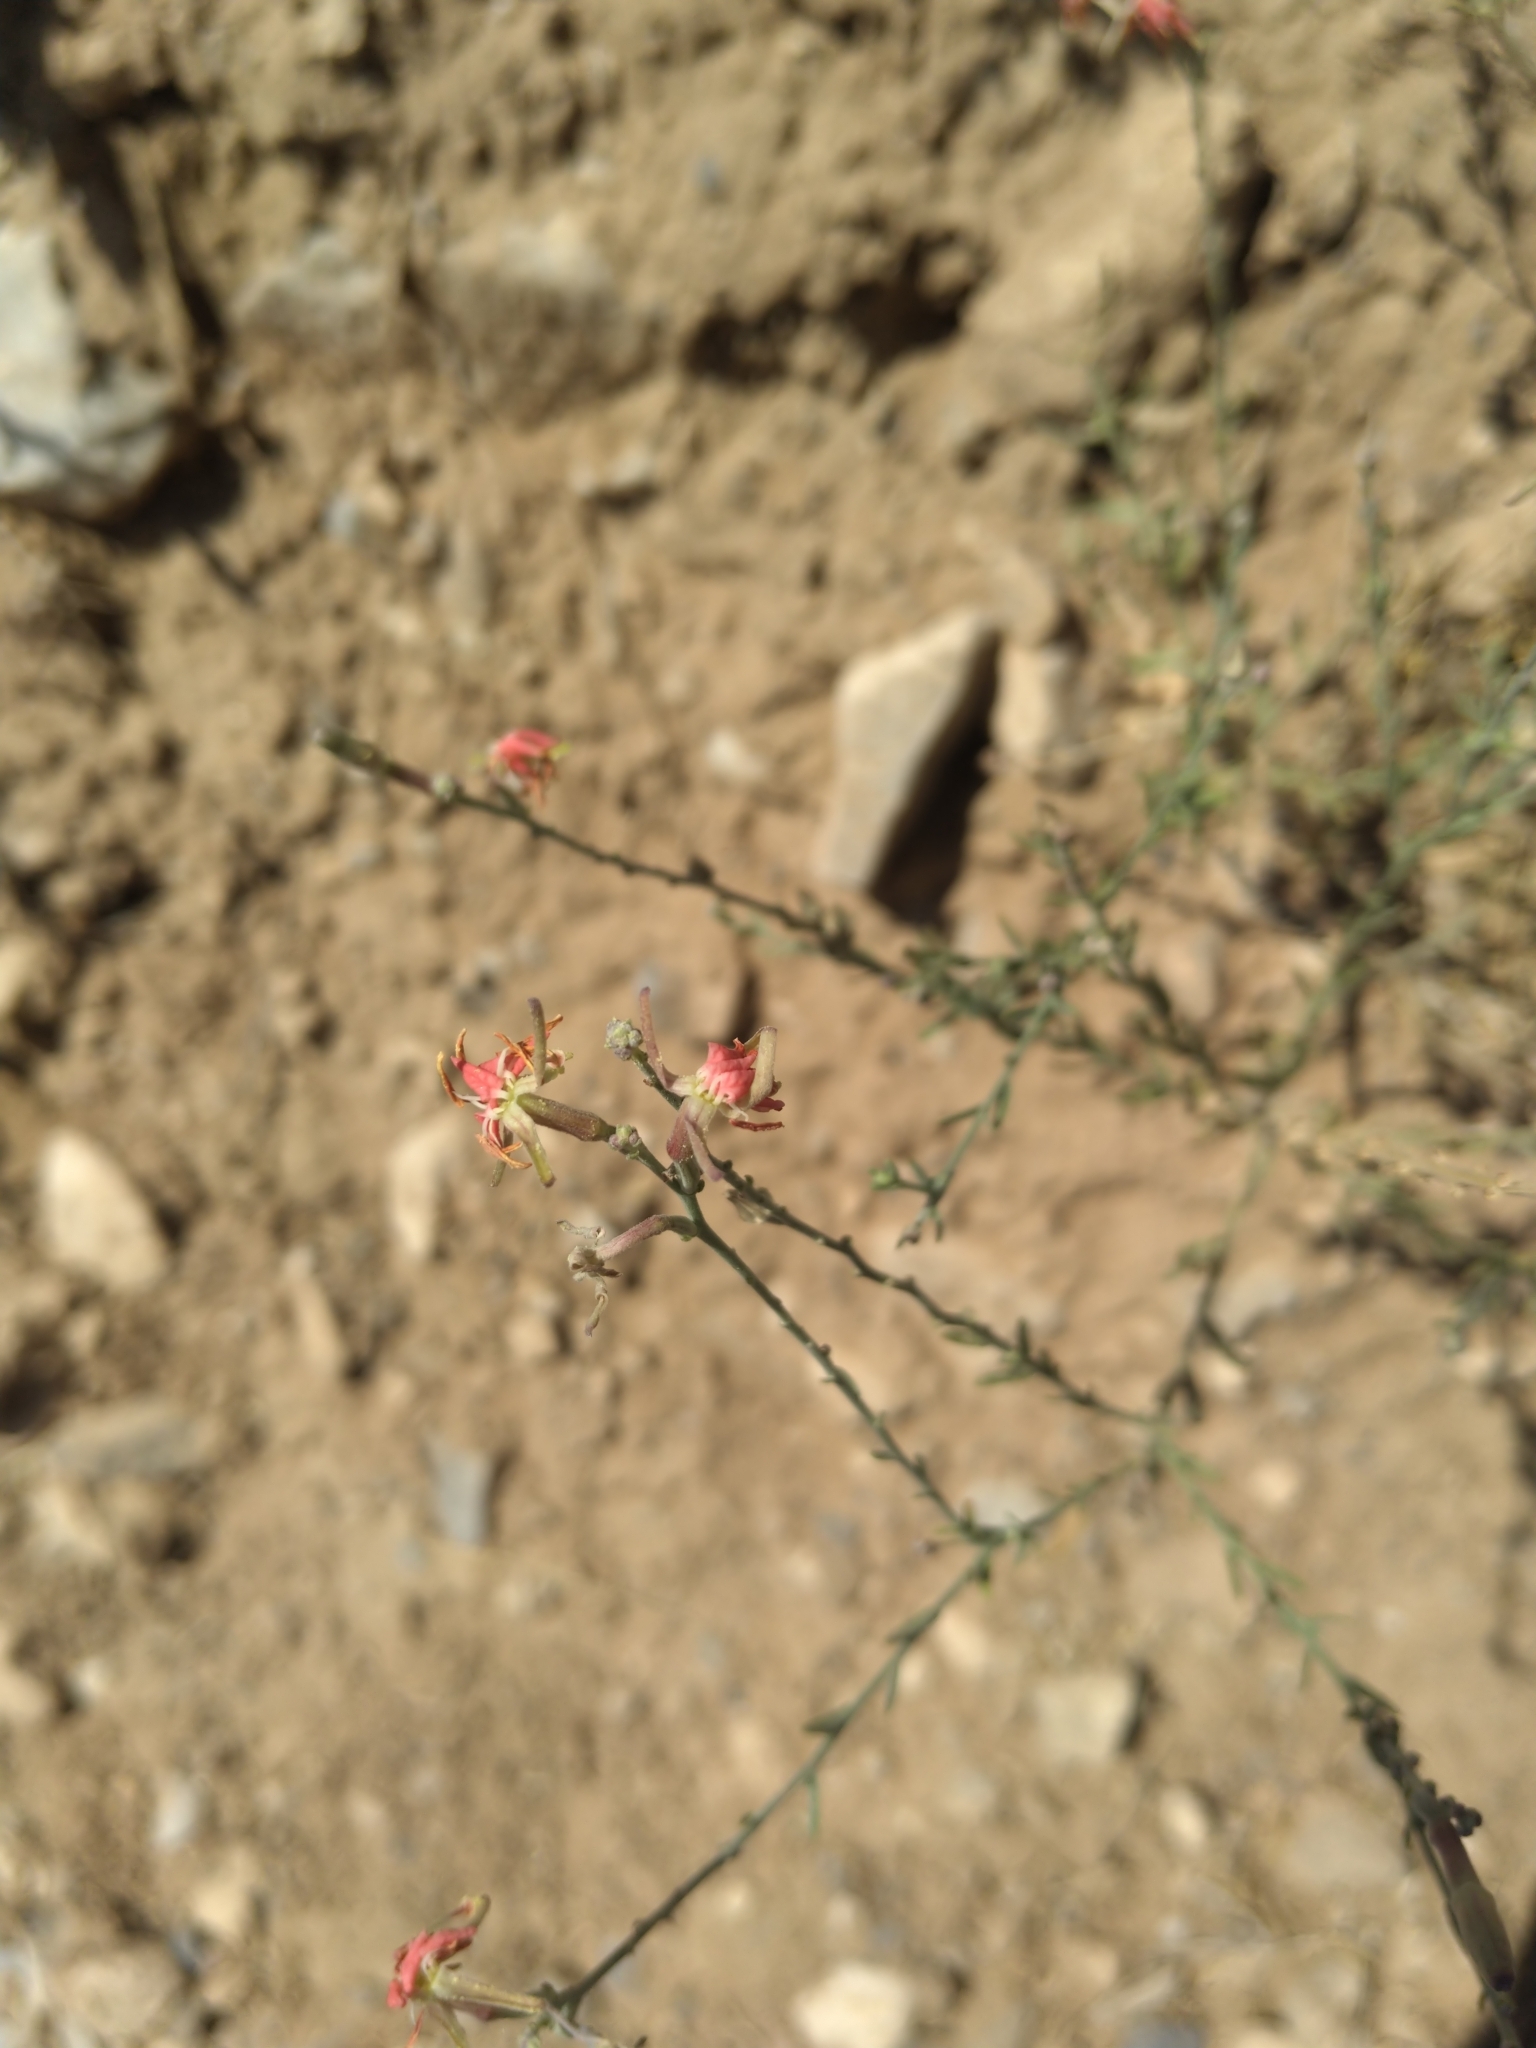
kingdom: Plantae
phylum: Tracheophyta
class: Magnoliopsida
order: Myrtales
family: Onagraceae
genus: Oenothera
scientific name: Oenothera suffrutescens
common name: Scarlet beeblossom
